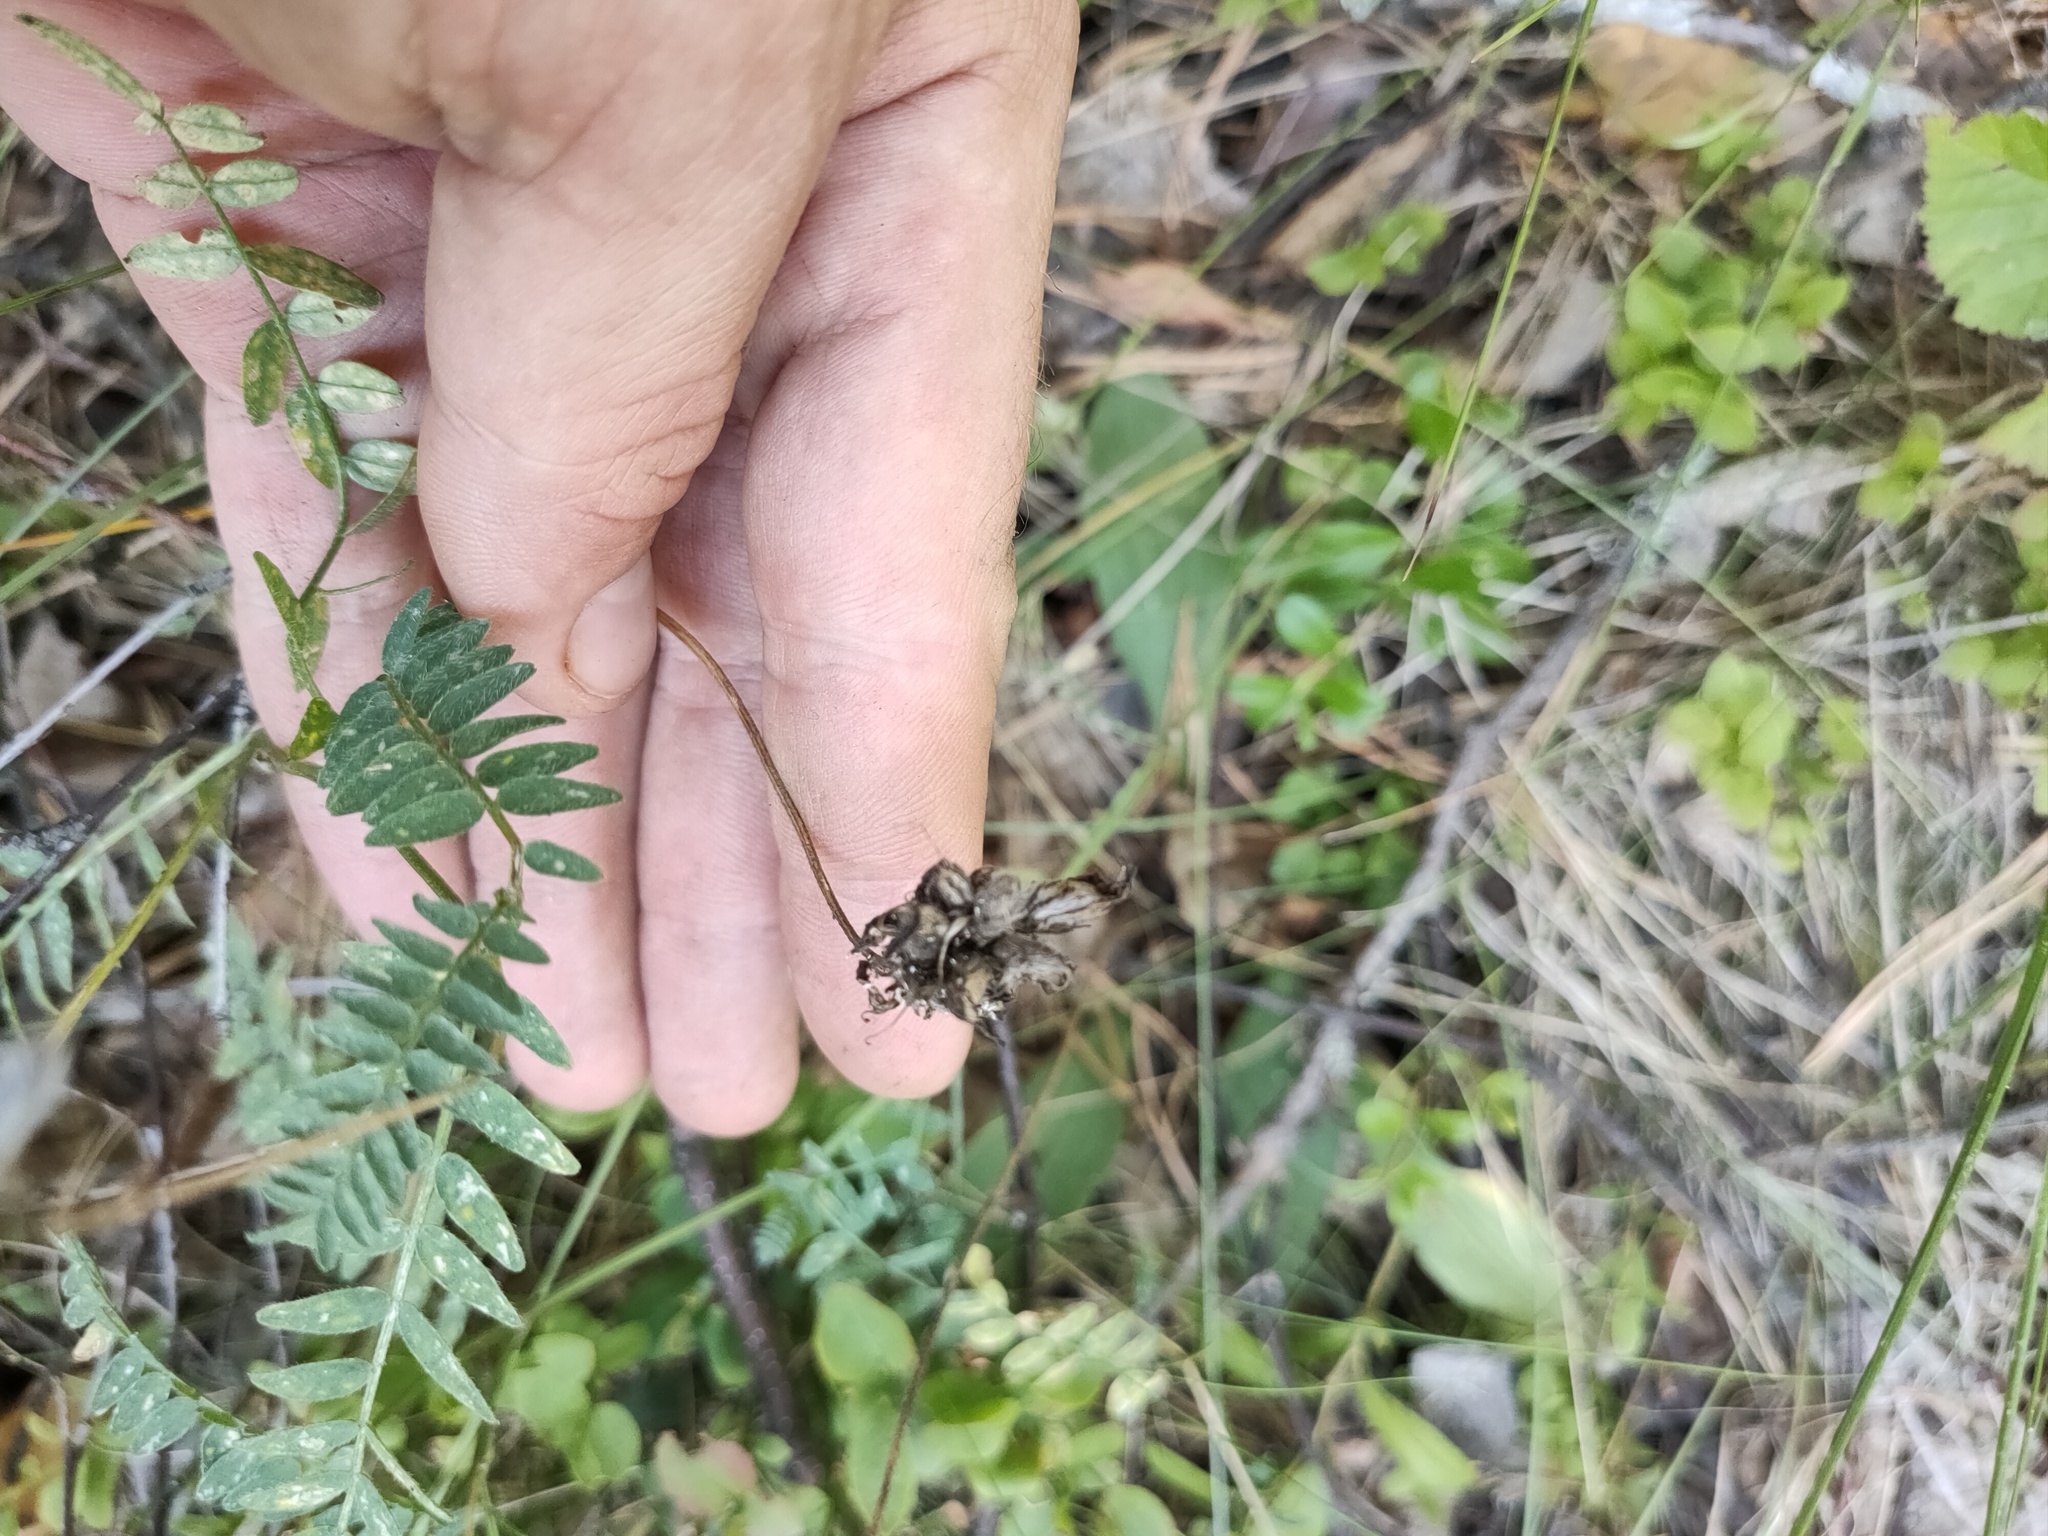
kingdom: Plantae
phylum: Tracheophyta
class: Magnoliopsida
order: Fabales
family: Fabaceae
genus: Astragalus
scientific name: Astragalus danicus
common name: Purple milk-vetch
